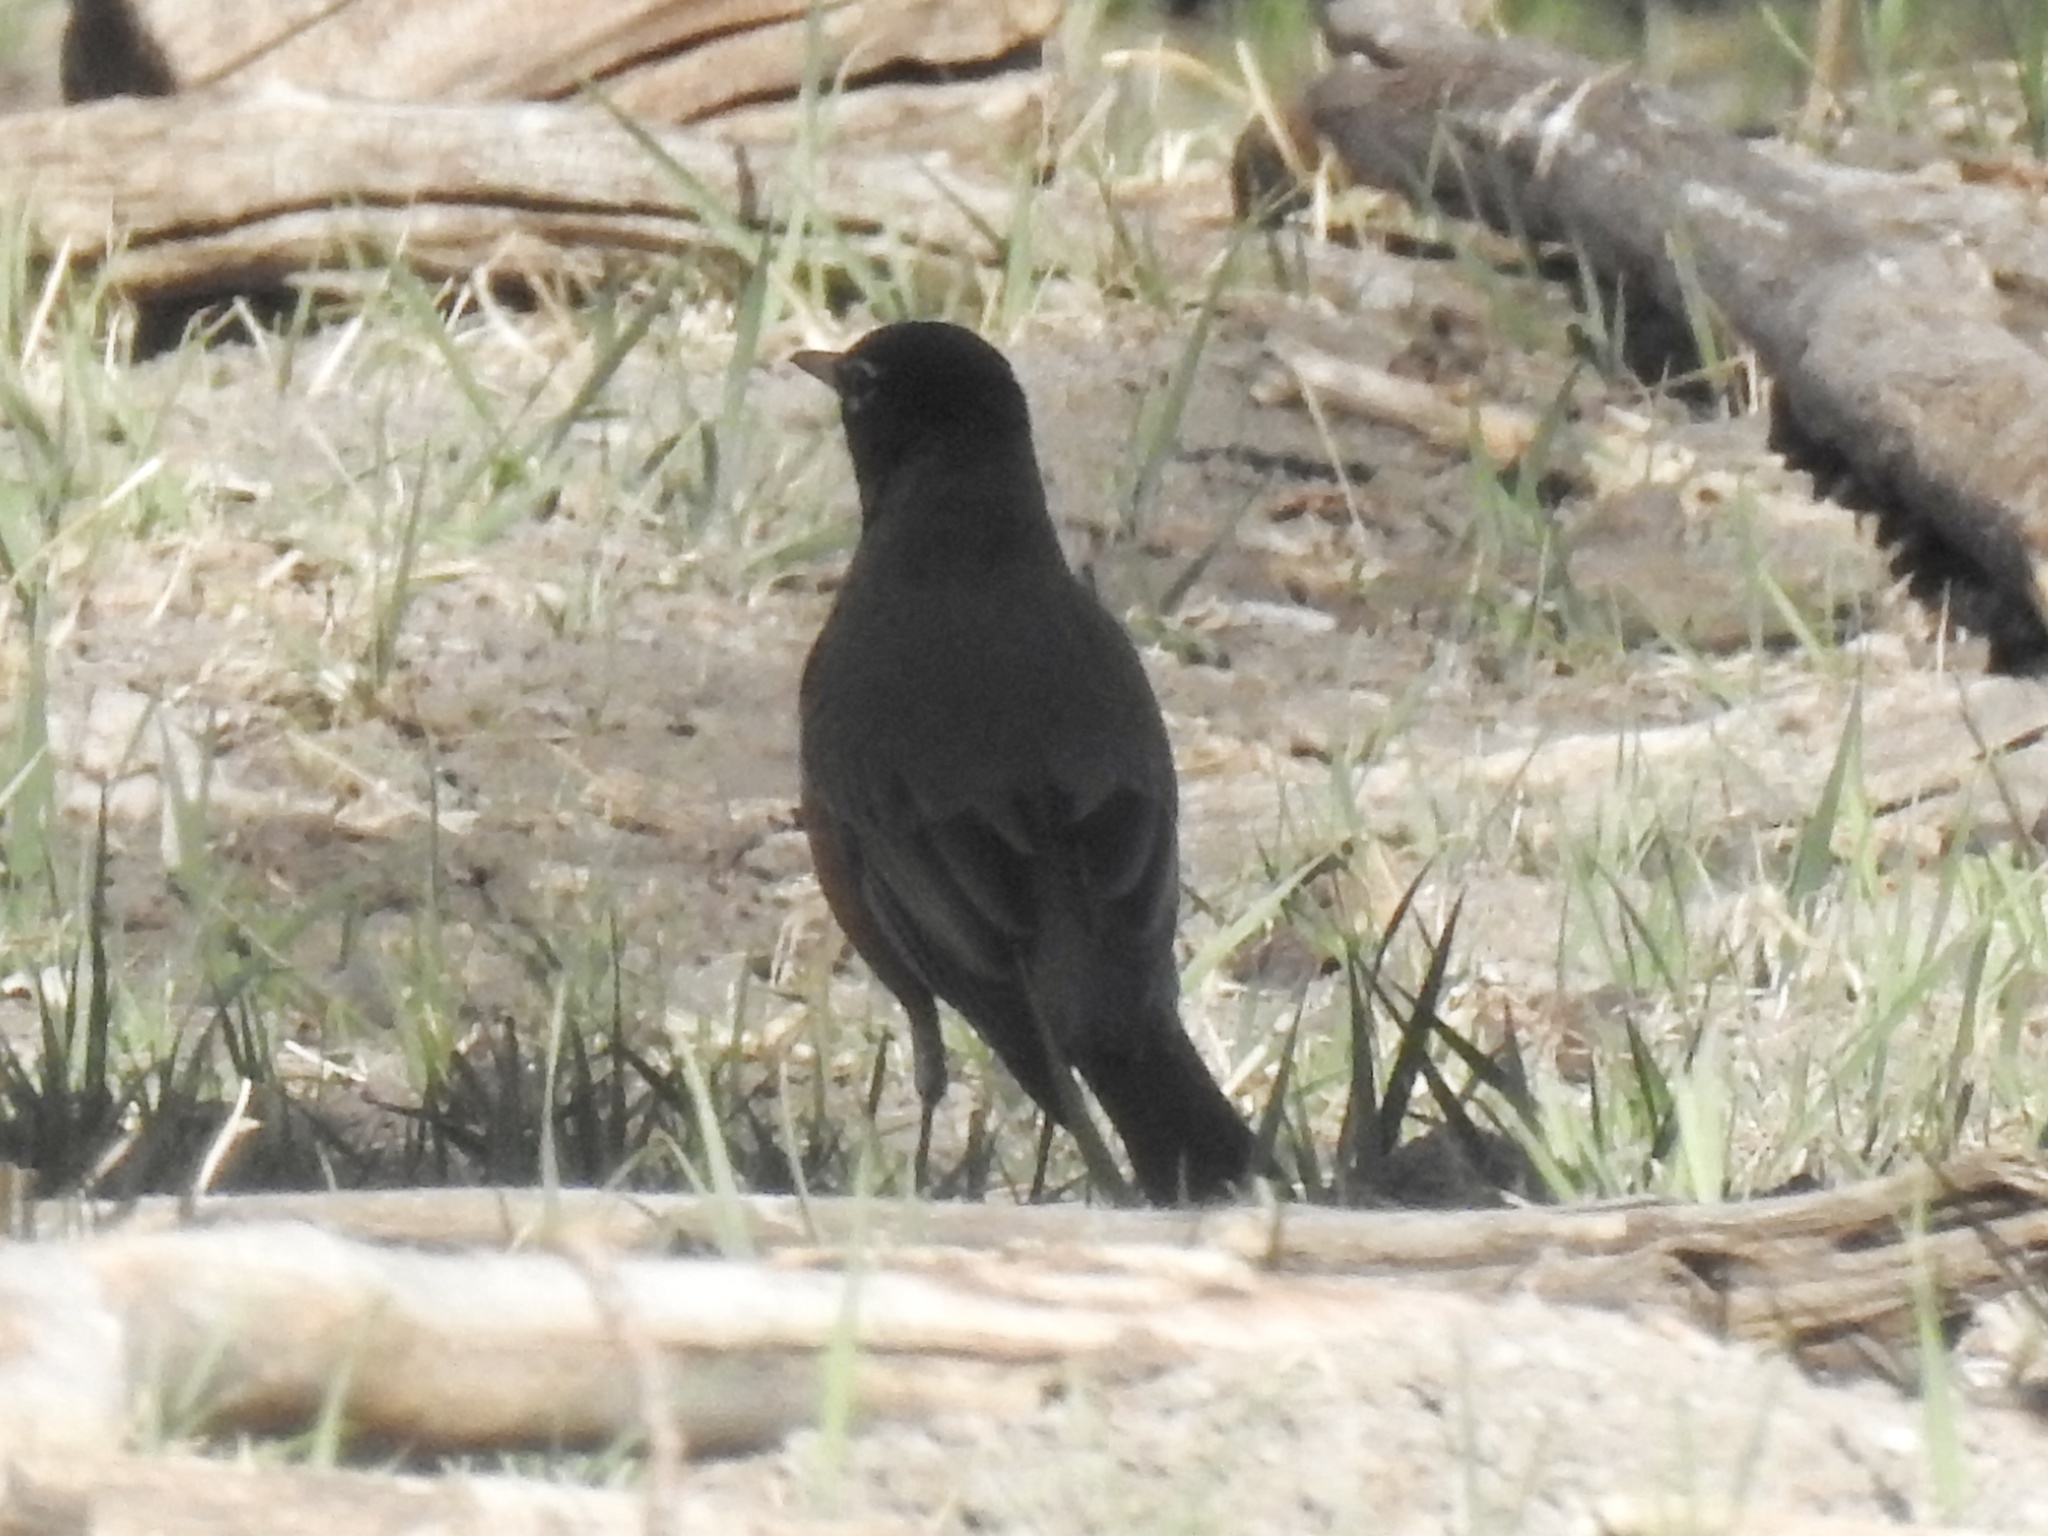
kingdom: Animalia
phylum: Chordata
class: Aves
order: Passeriformes
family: Turdidae
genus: Turdus
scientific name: Turdus migratorius
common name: American robin
